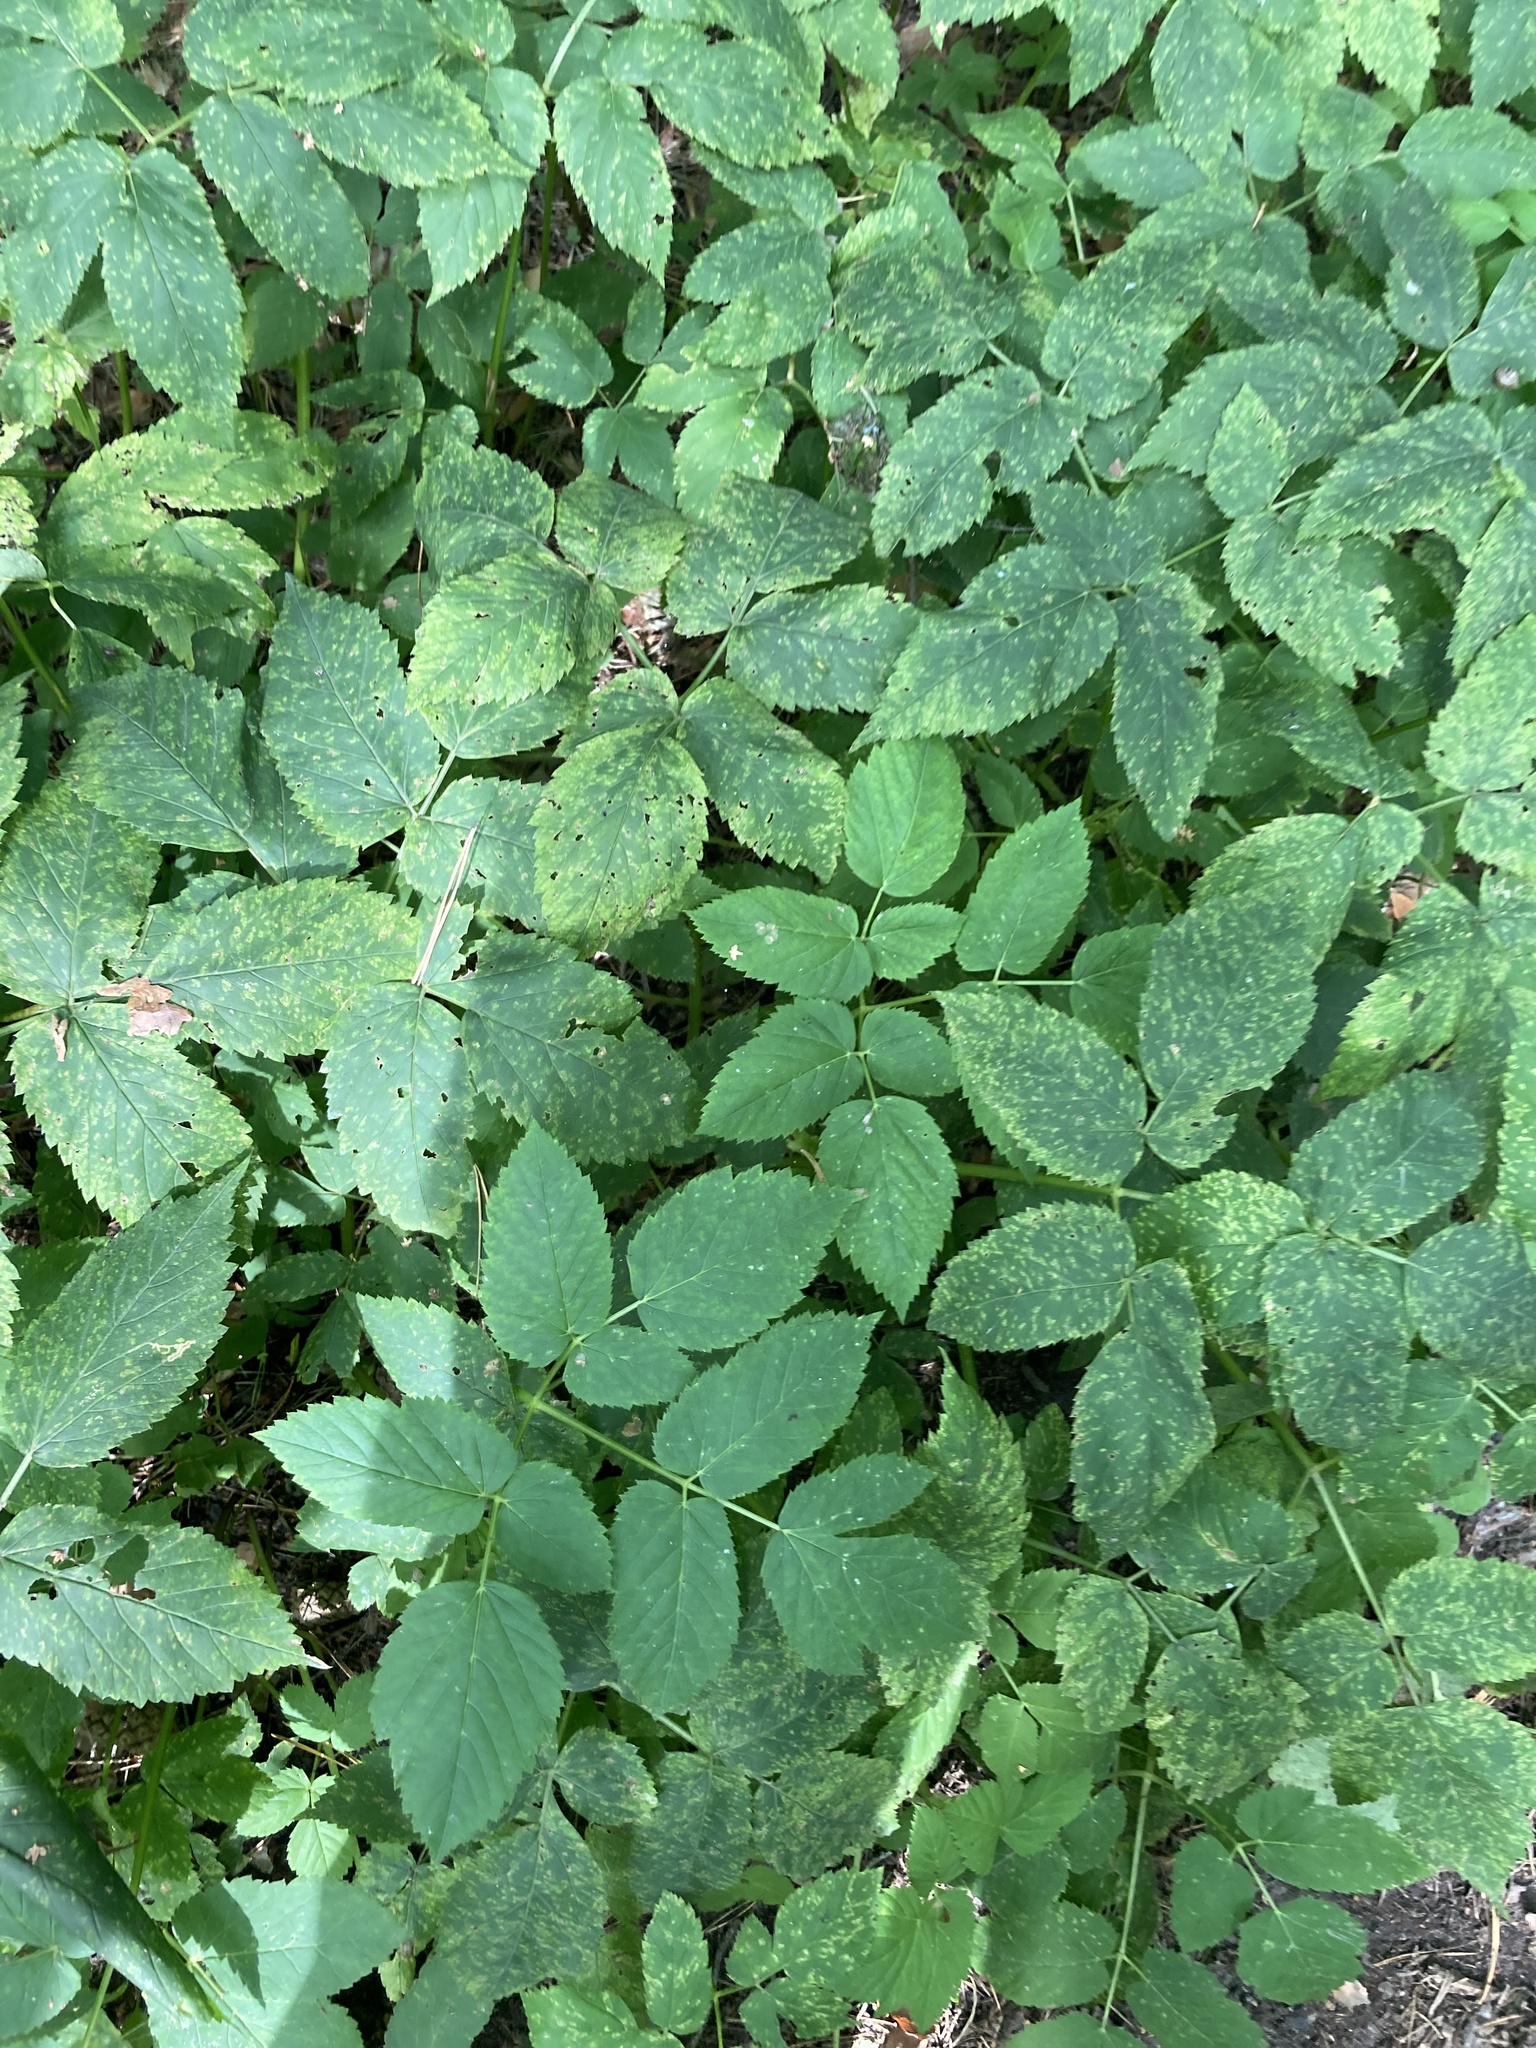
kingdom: Plantae
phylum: Tracheophyta
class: Magnoliopsida
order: Apiales
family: Apiaceae
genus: Aegopodium
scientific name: Aegopodium podagraria
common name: Ground-elder
